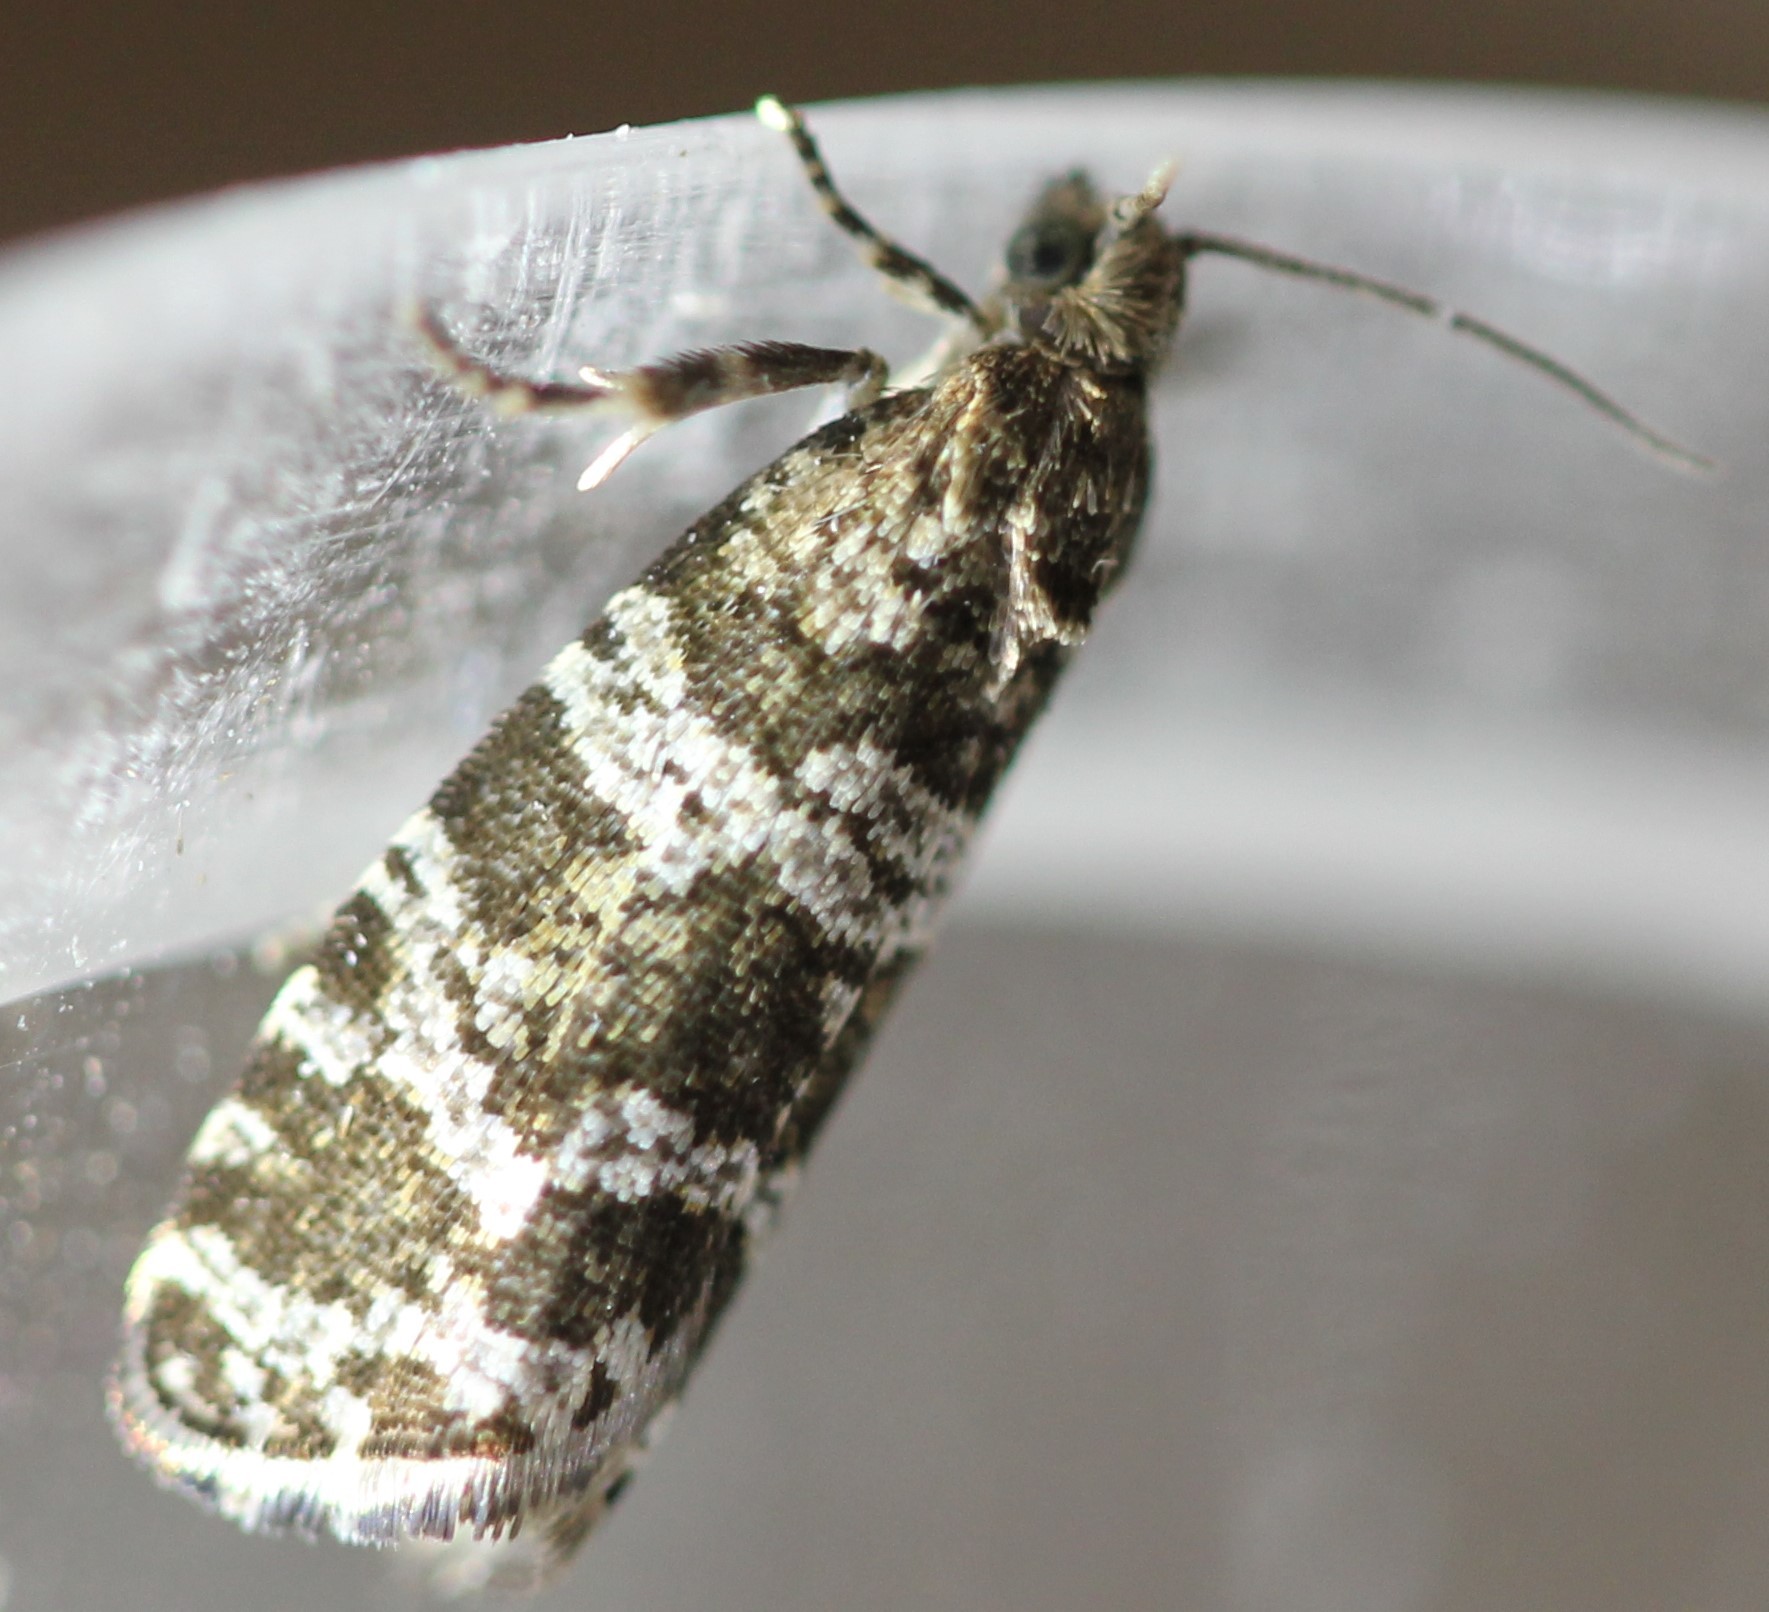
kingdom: Animalia
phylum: Arthropoda
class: Insecta
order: Lepidoptera
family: Tortricidae
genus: Taniva
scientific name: Taniva albolineana
